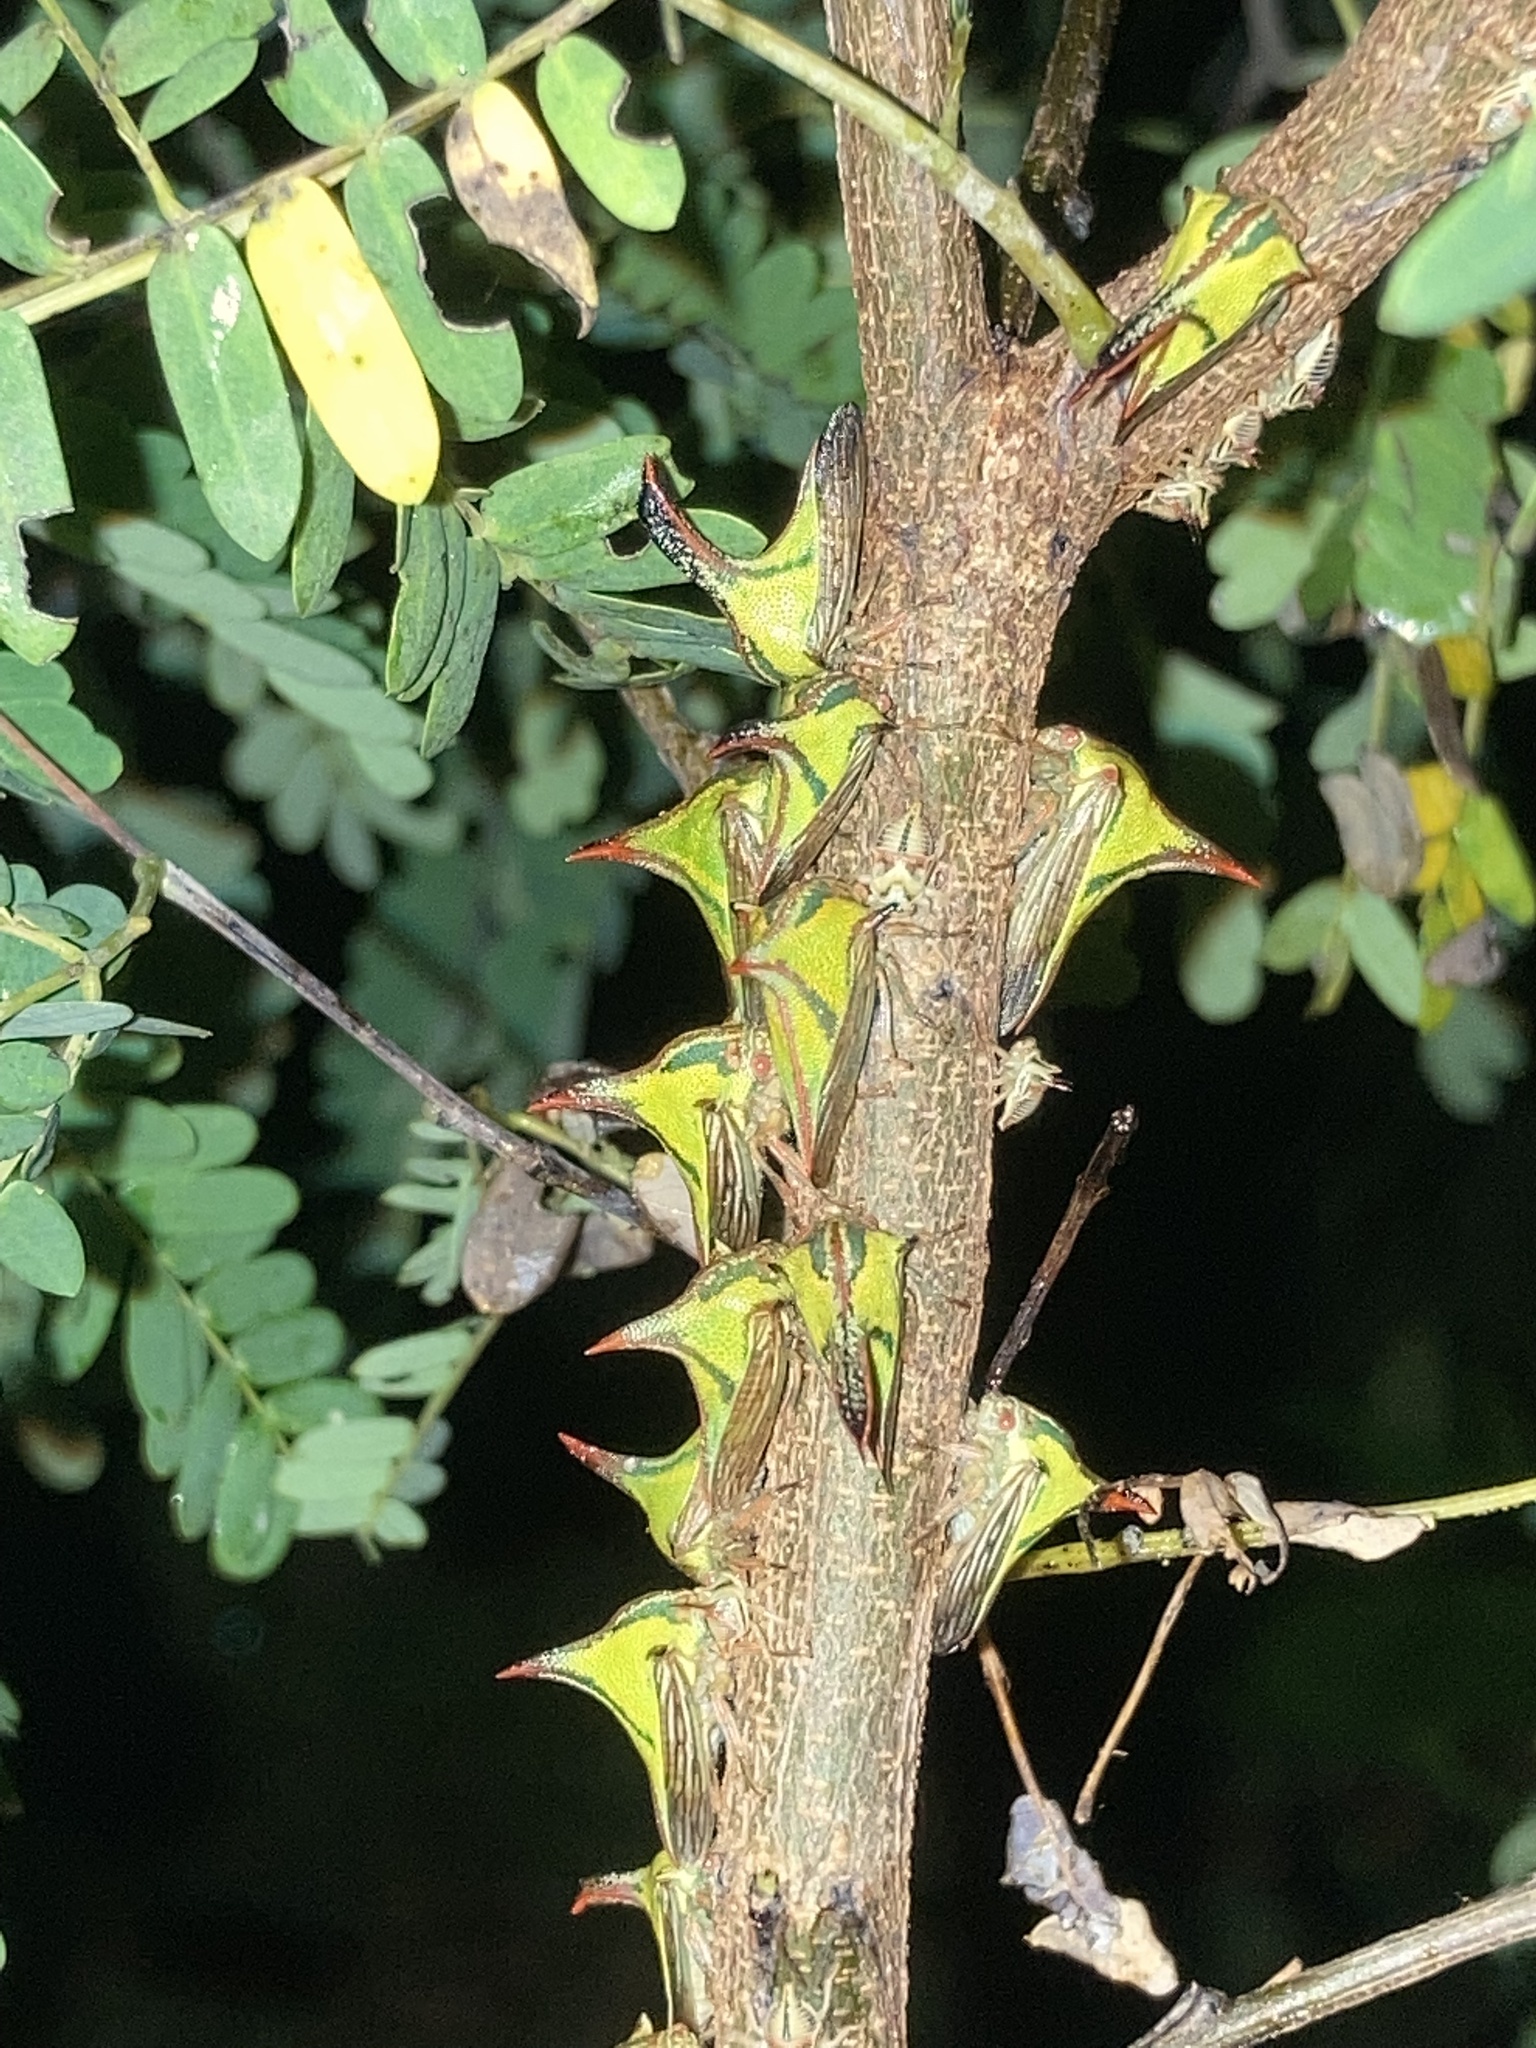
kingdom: Animalia
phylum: Arthropoda
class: Insecta
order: Hemiptera
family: Membracidae
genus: Umbonia
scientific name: Umbonia crassicornis
